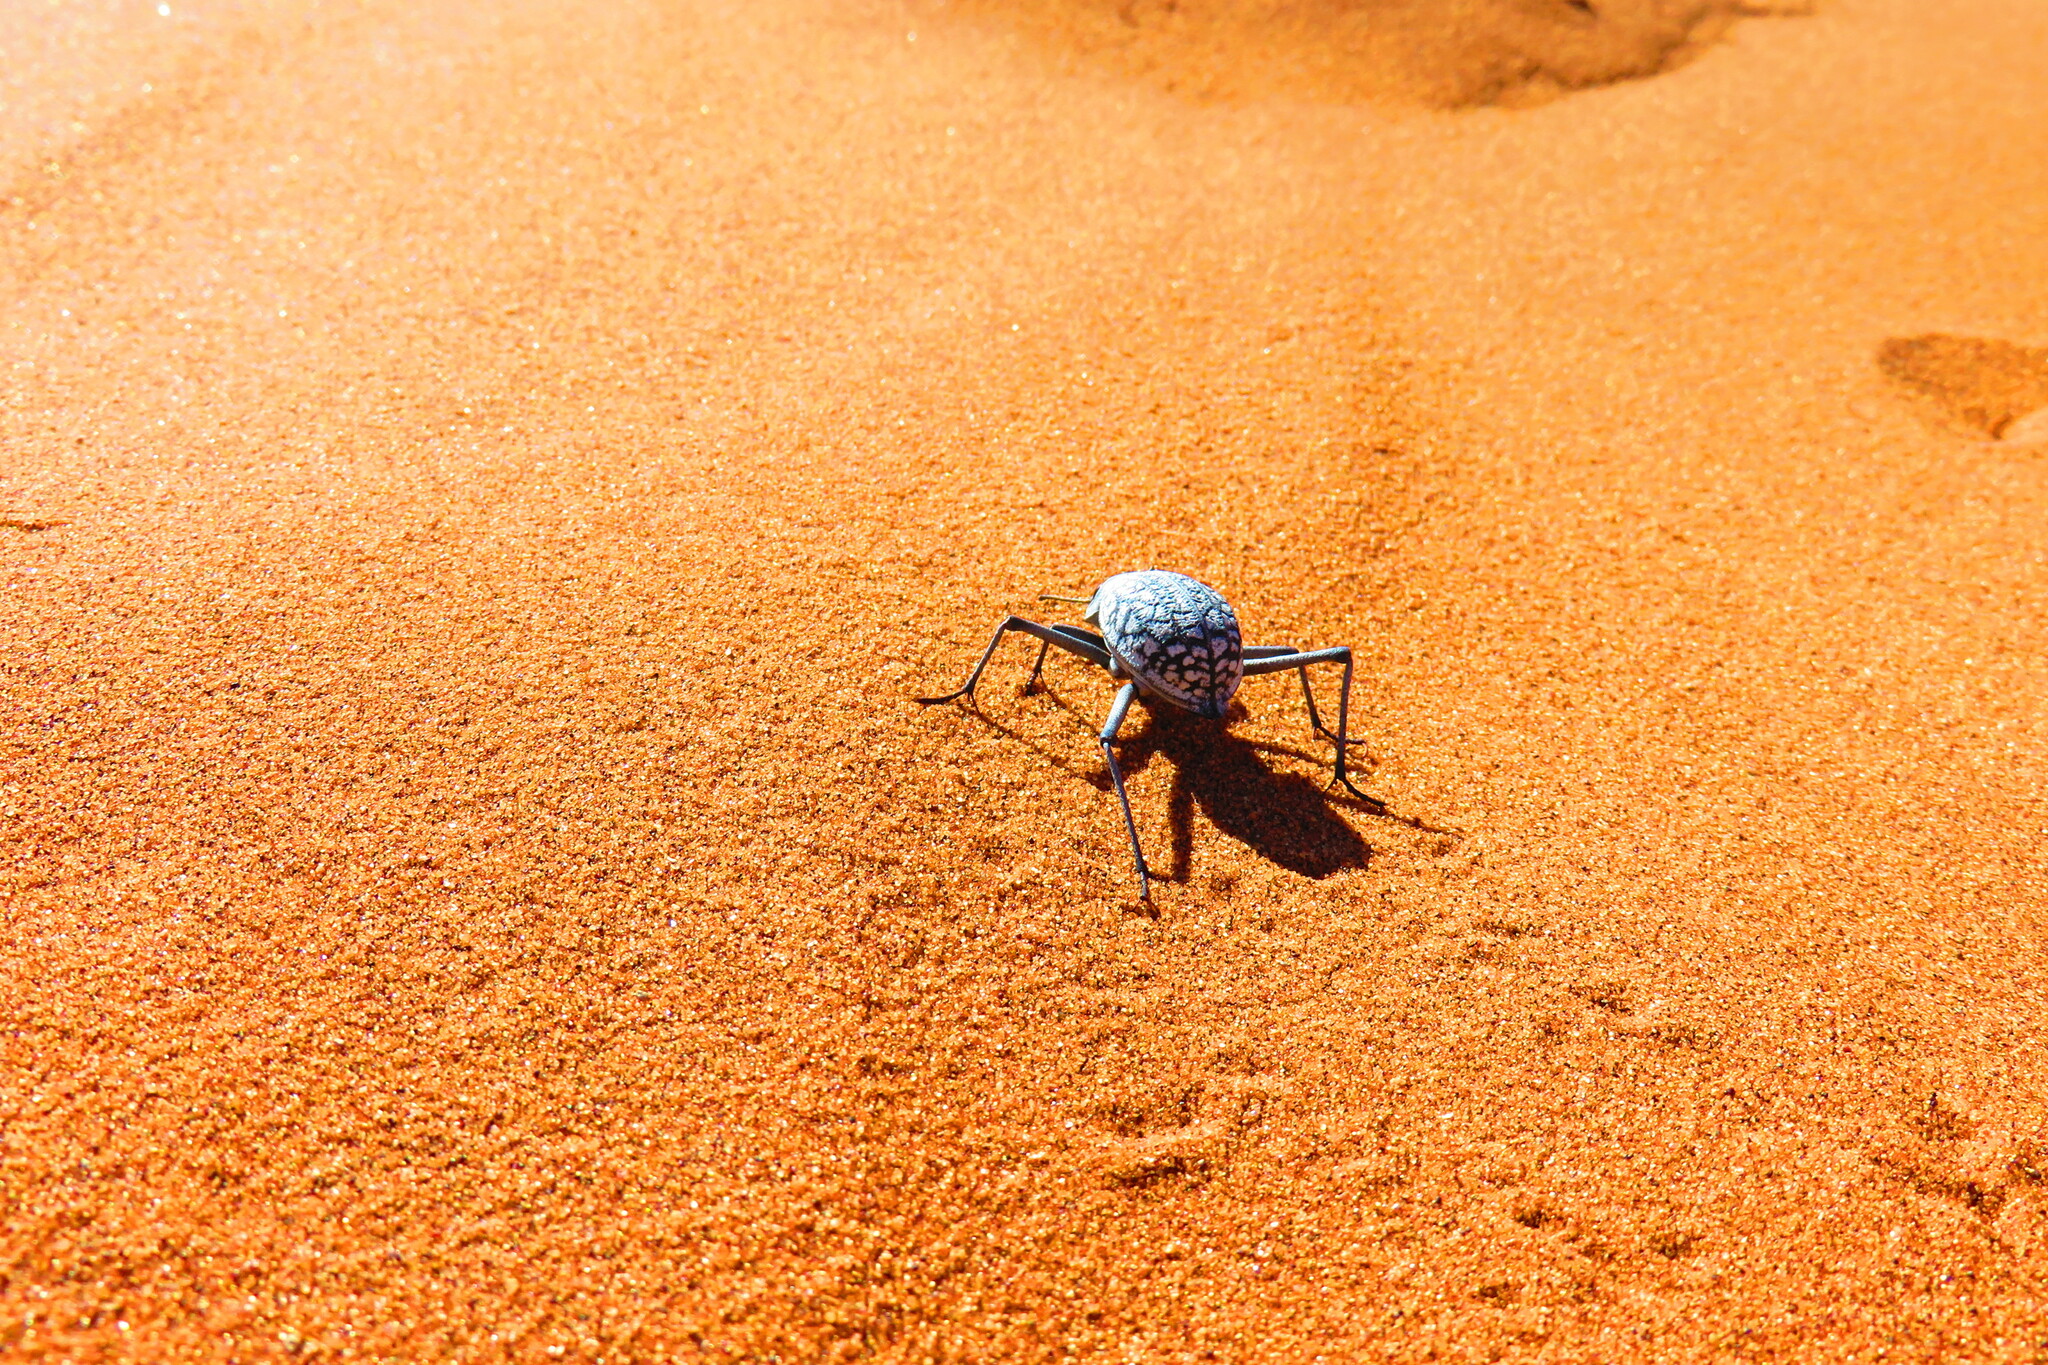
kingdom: Animalia
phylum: Arthropoda
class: Insecta
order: Coleoptera
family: Tenebrionidae
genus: Onymacris
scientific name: Onymacris
